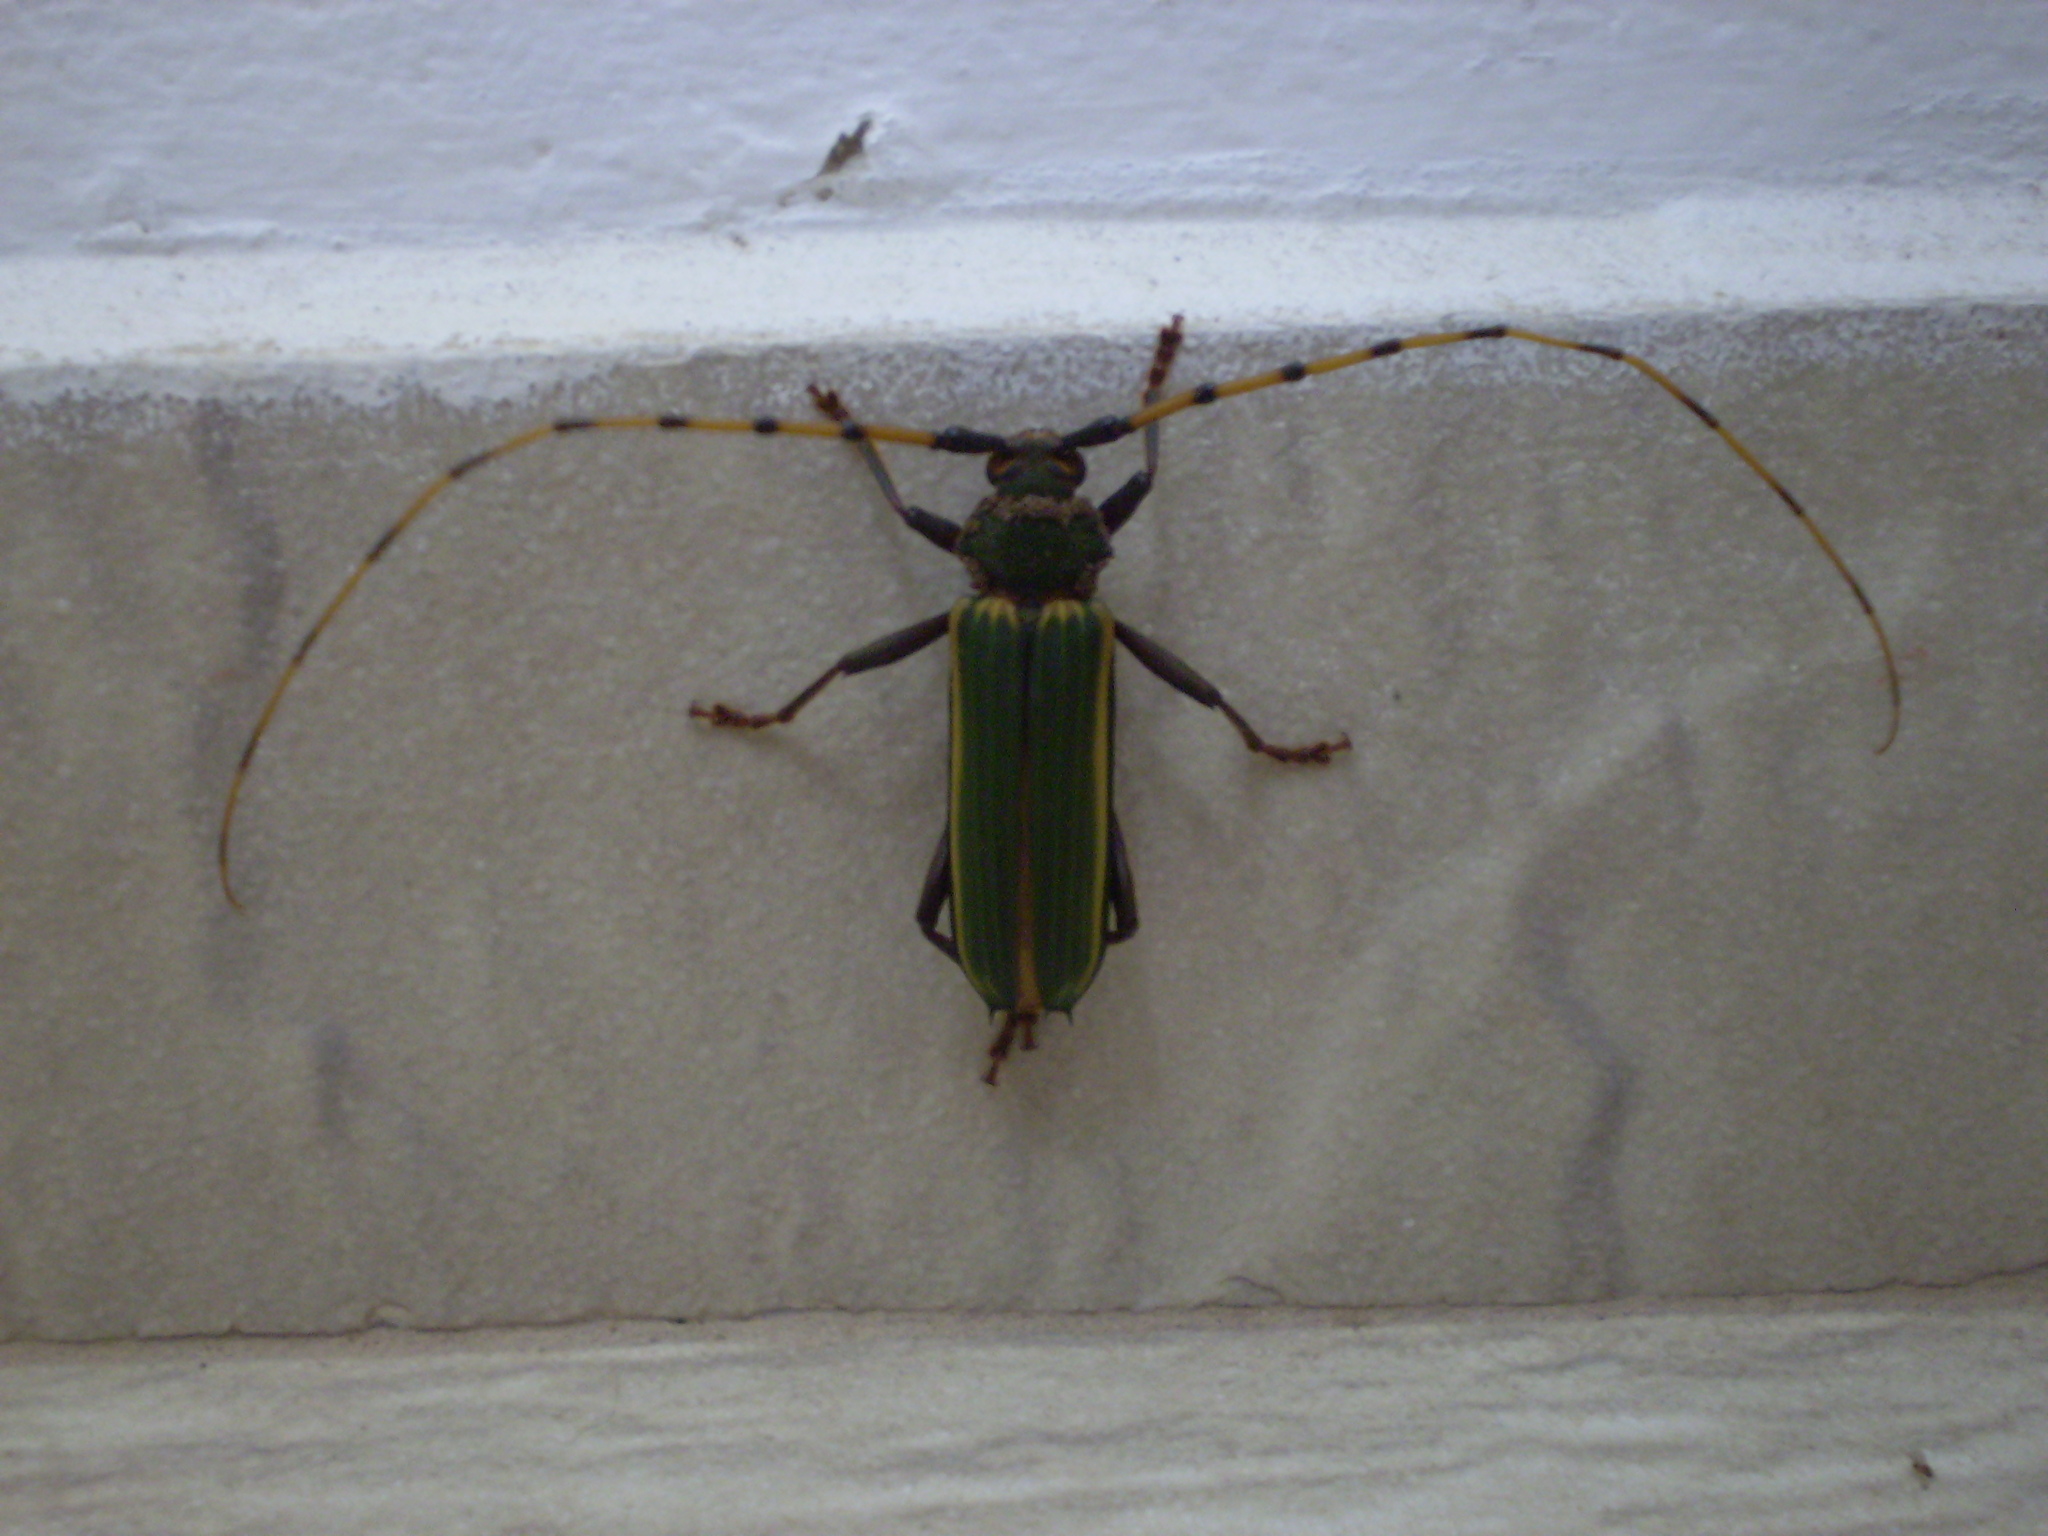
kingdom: Animalia
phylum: Arthropoda
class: Insecta
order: Coleoptera
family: Cerambycidae
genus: Chlorida
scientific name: Chlorida costata
